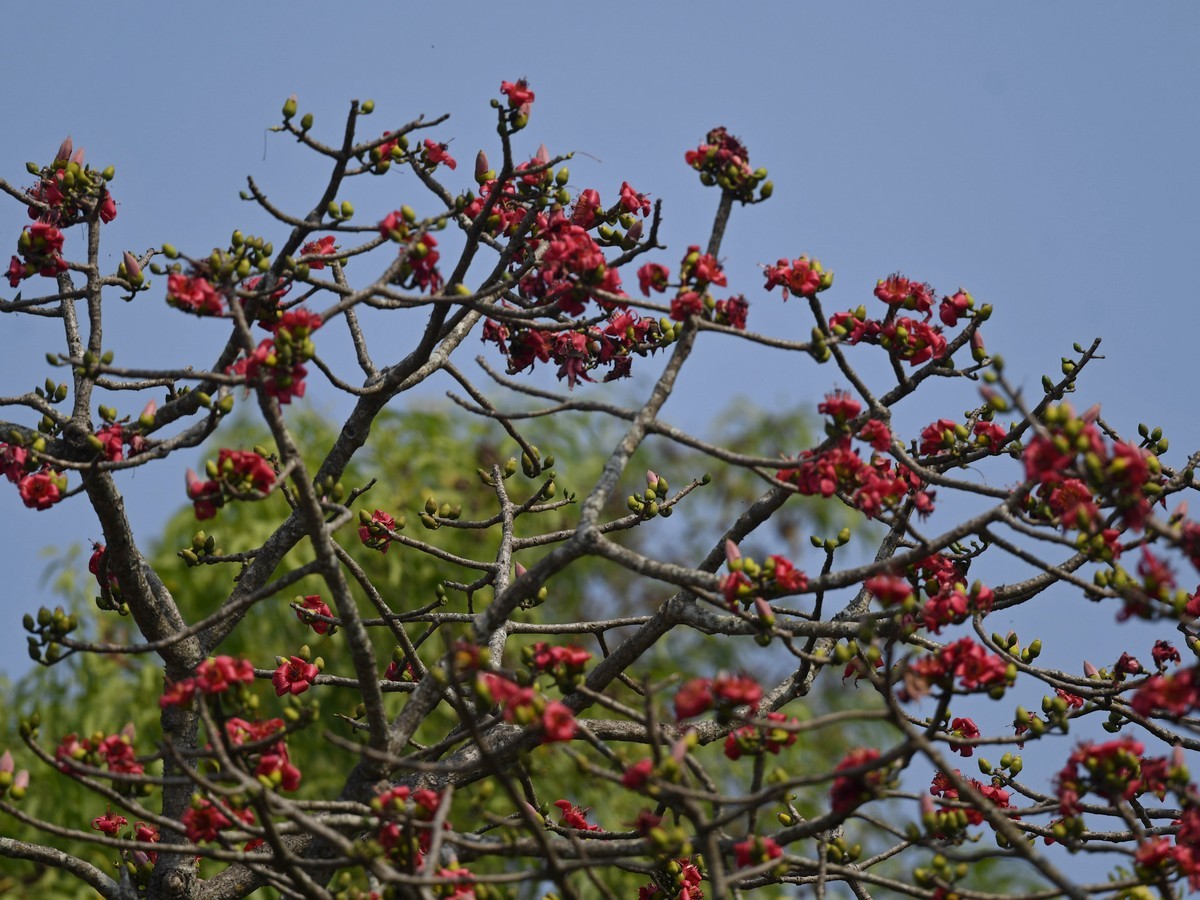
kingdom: Plantae
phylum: Tracheophyta
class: Magnoliopsida
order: Malvales
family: Malvaceae
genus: Bombax
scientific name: Bombax ceiba
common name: Northern-cottonwood
